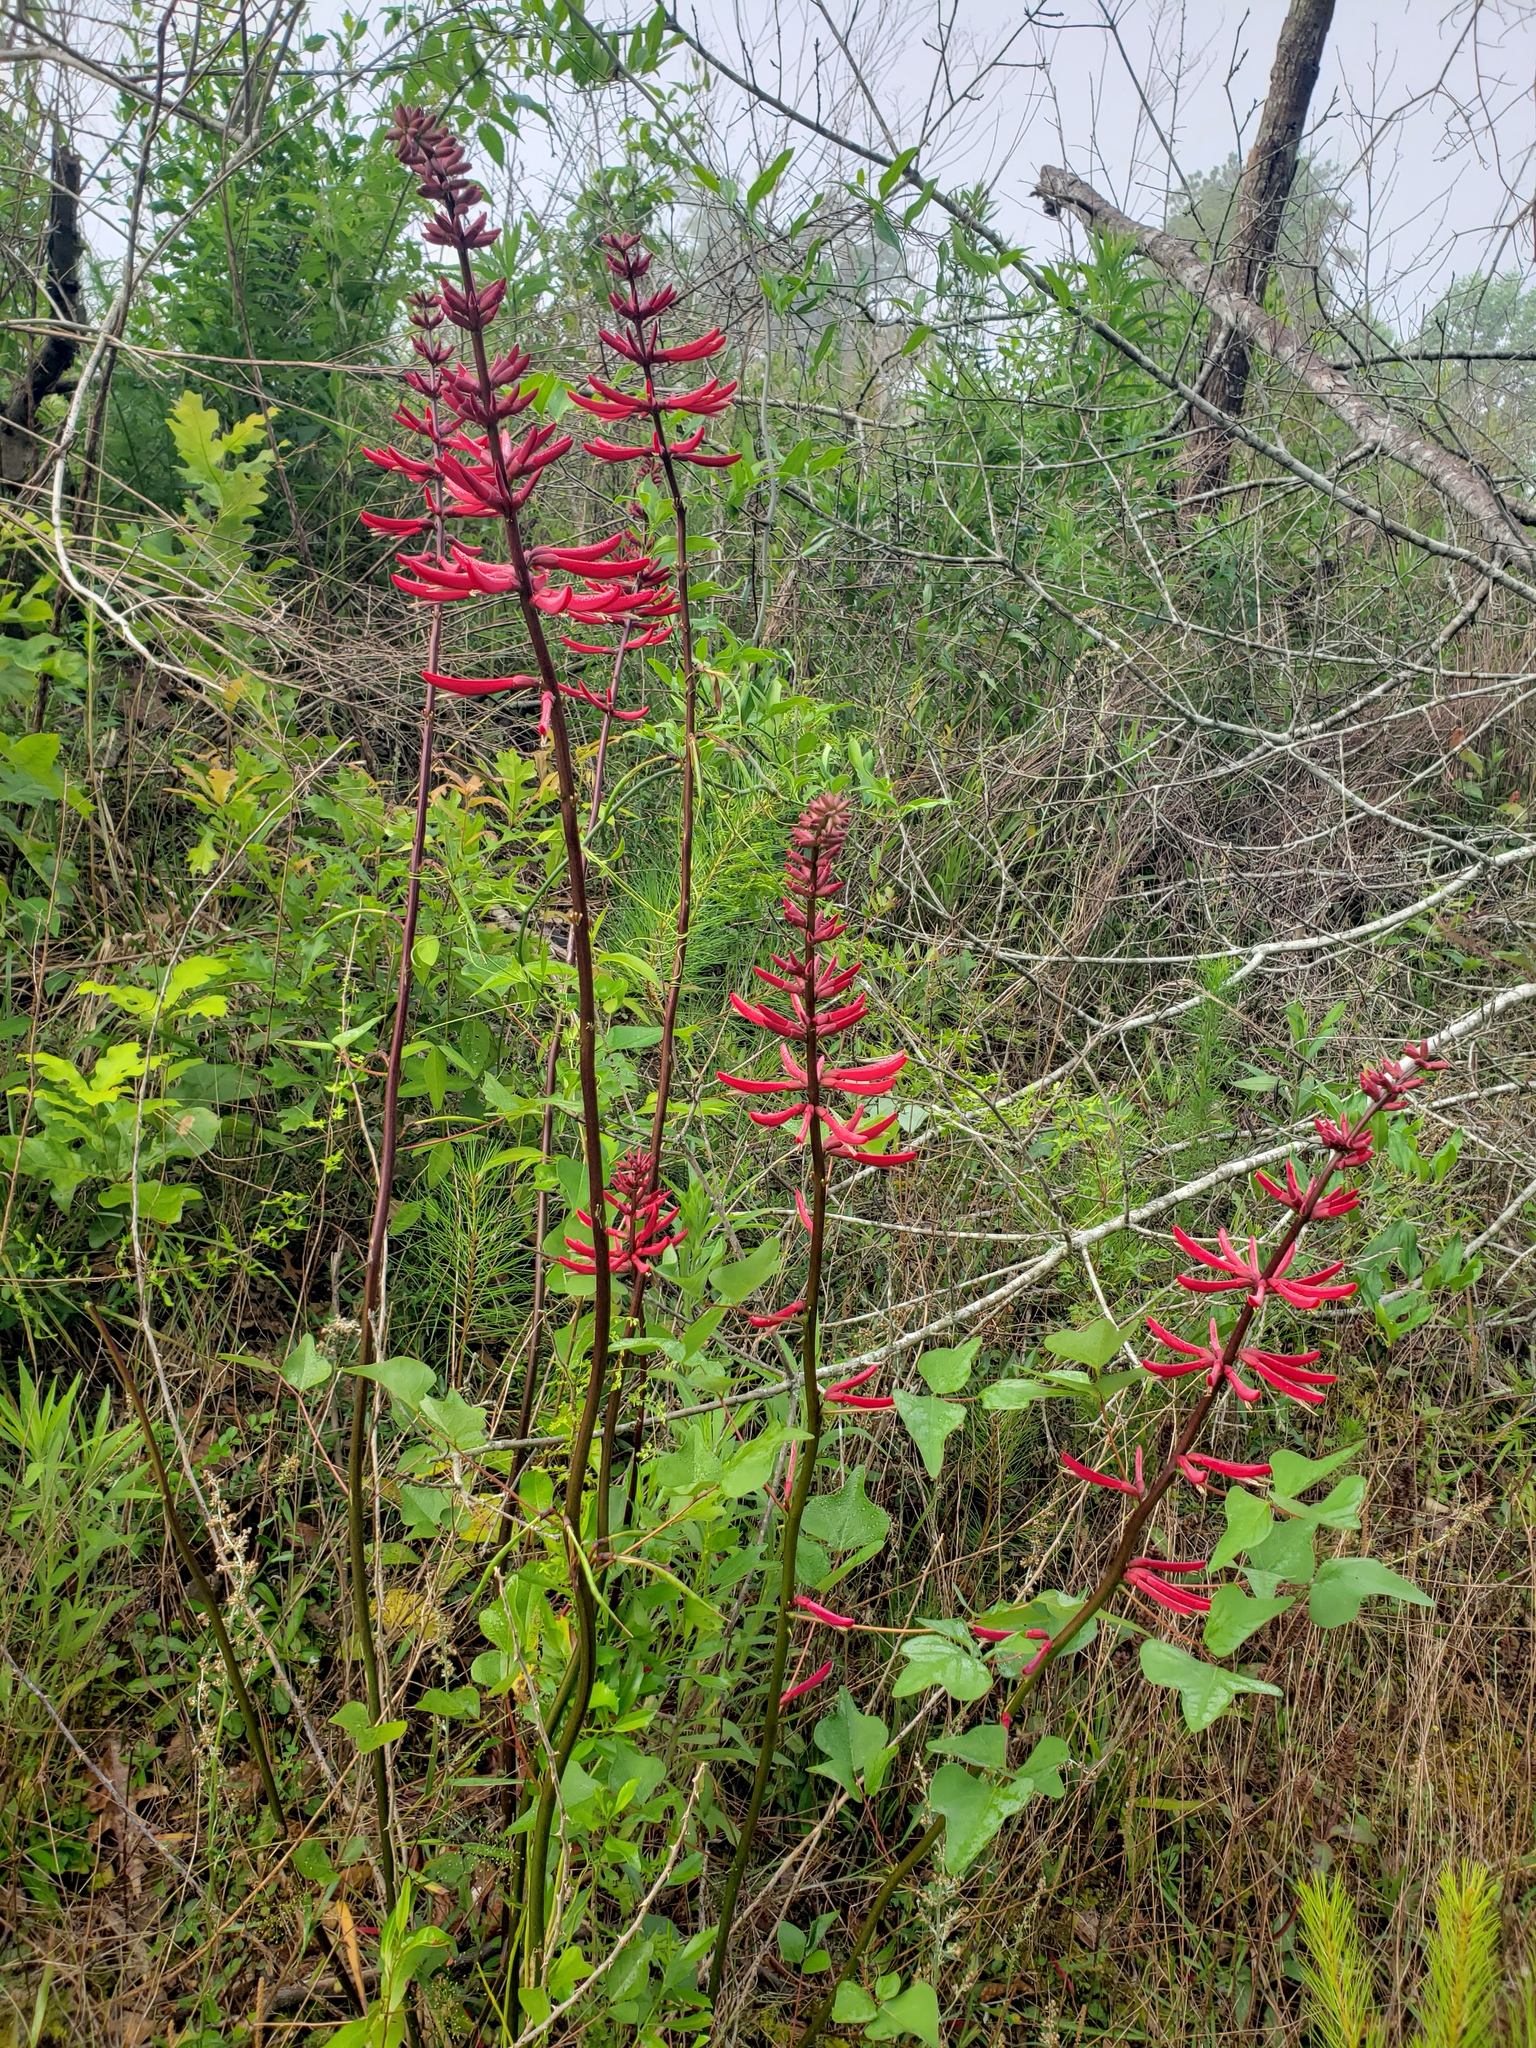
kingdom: Plantae
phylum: Tracheophyta
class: Magnoliopsida
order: Fabales
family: Fabaceae
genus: Erythrina
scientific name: Erythrina herbacea
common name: Coral-bean
